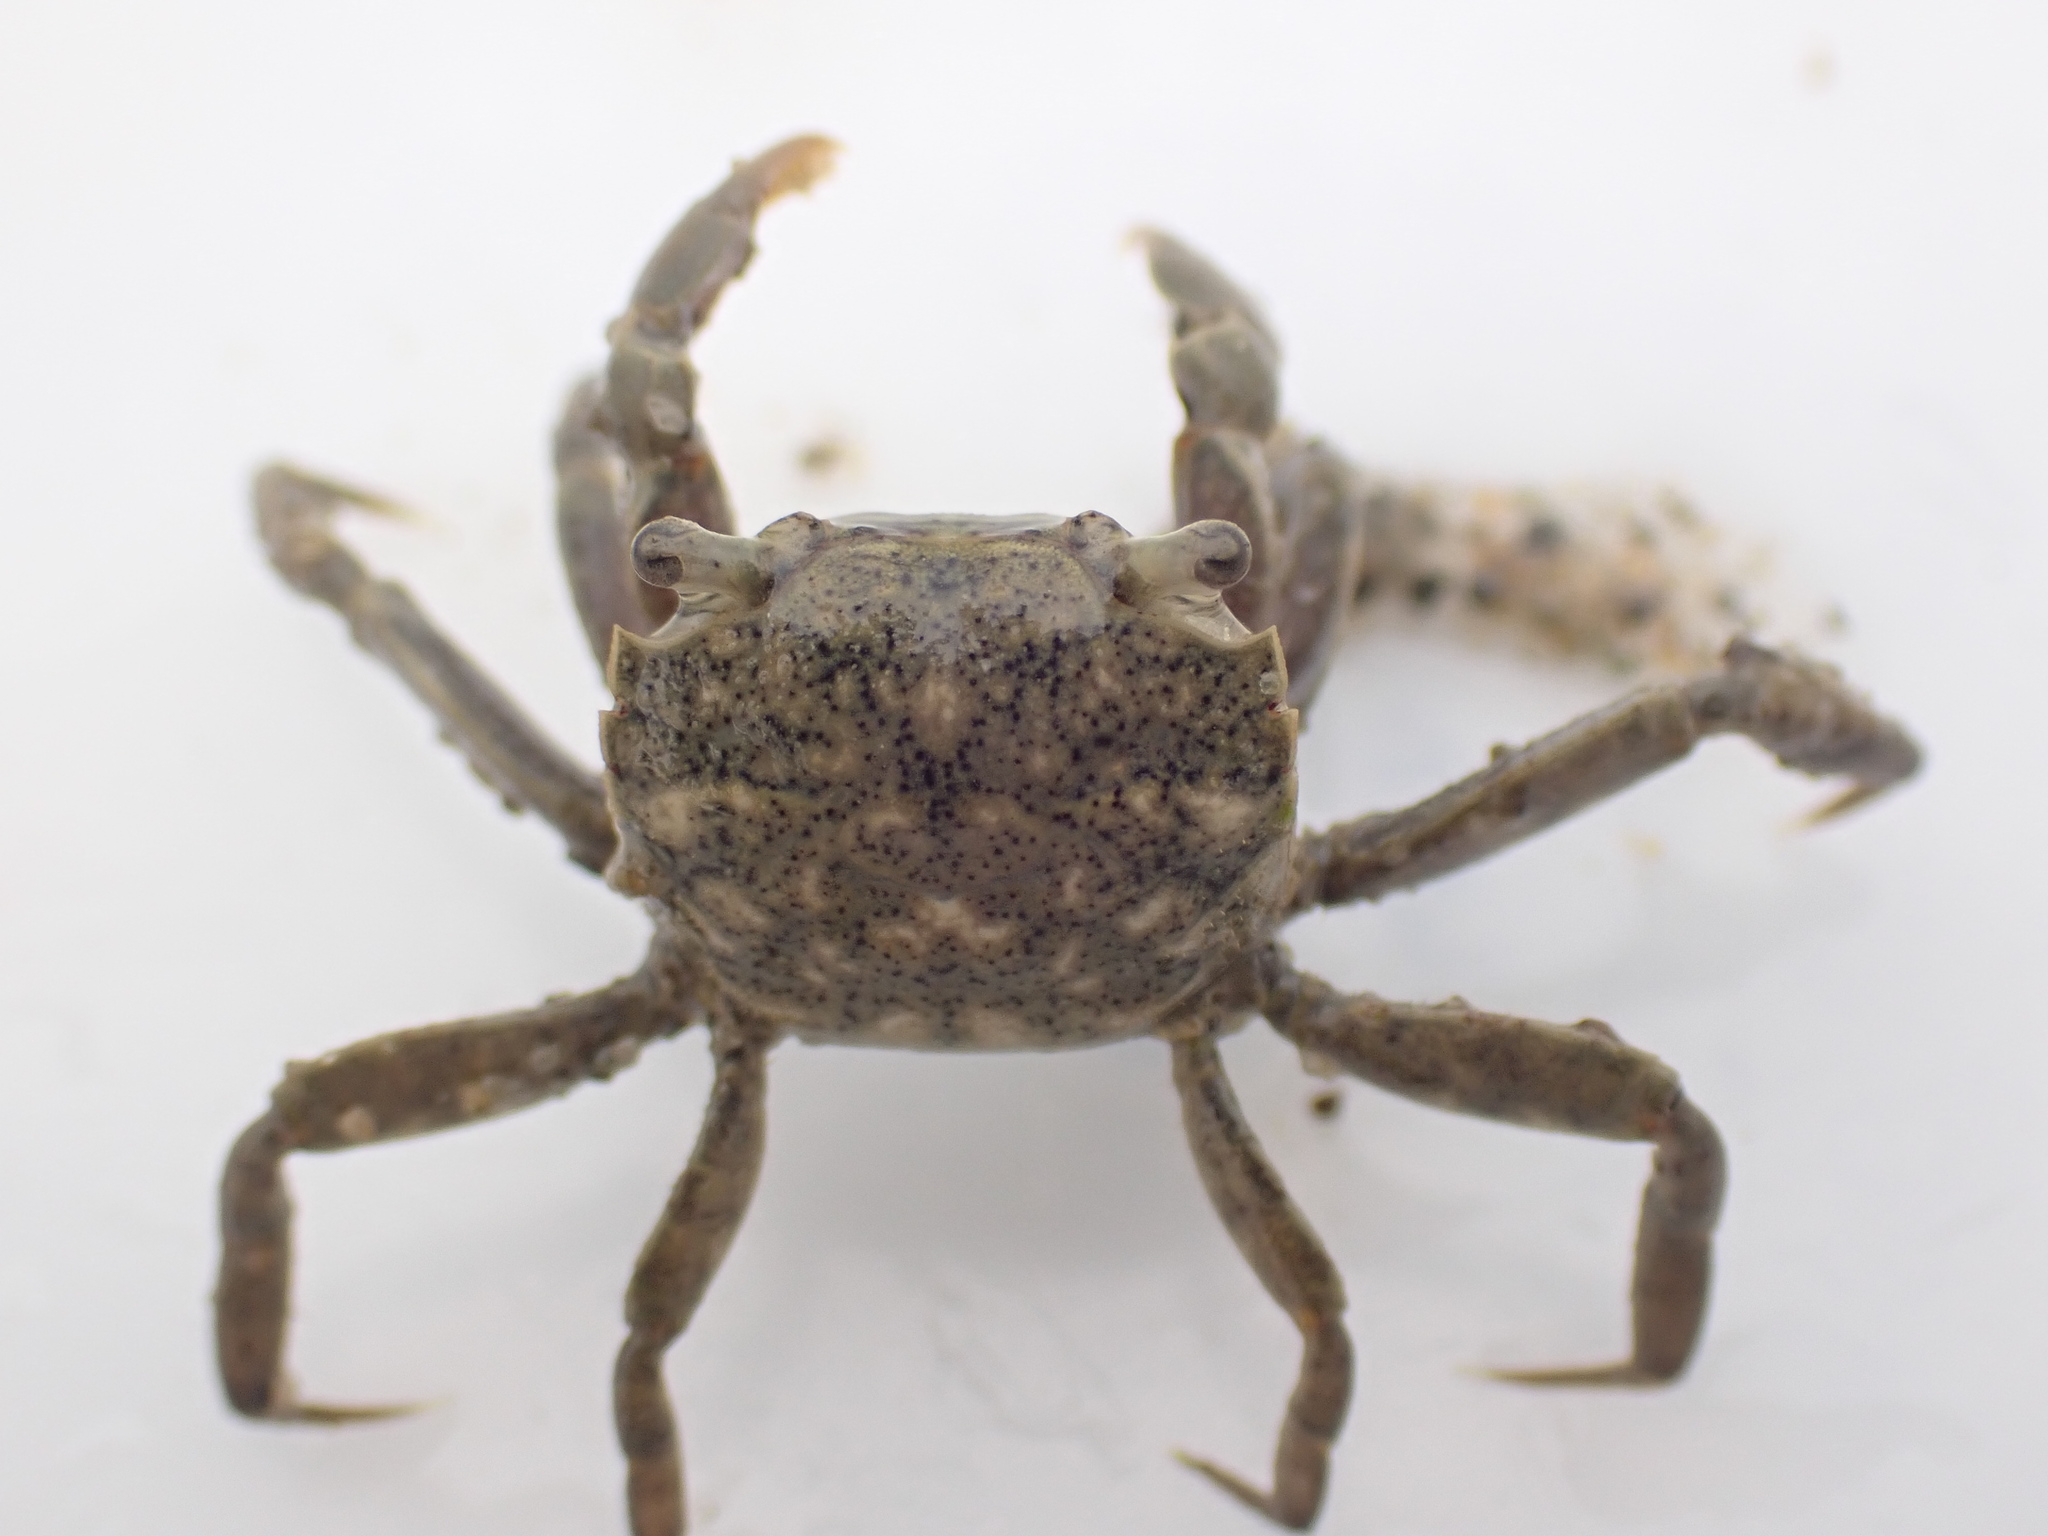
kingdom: Animalia
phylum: Arthropoda
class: Malacostraca
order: Decapoda
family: Varunidae
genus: Austrohelice
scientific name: Austrohelice crassa
